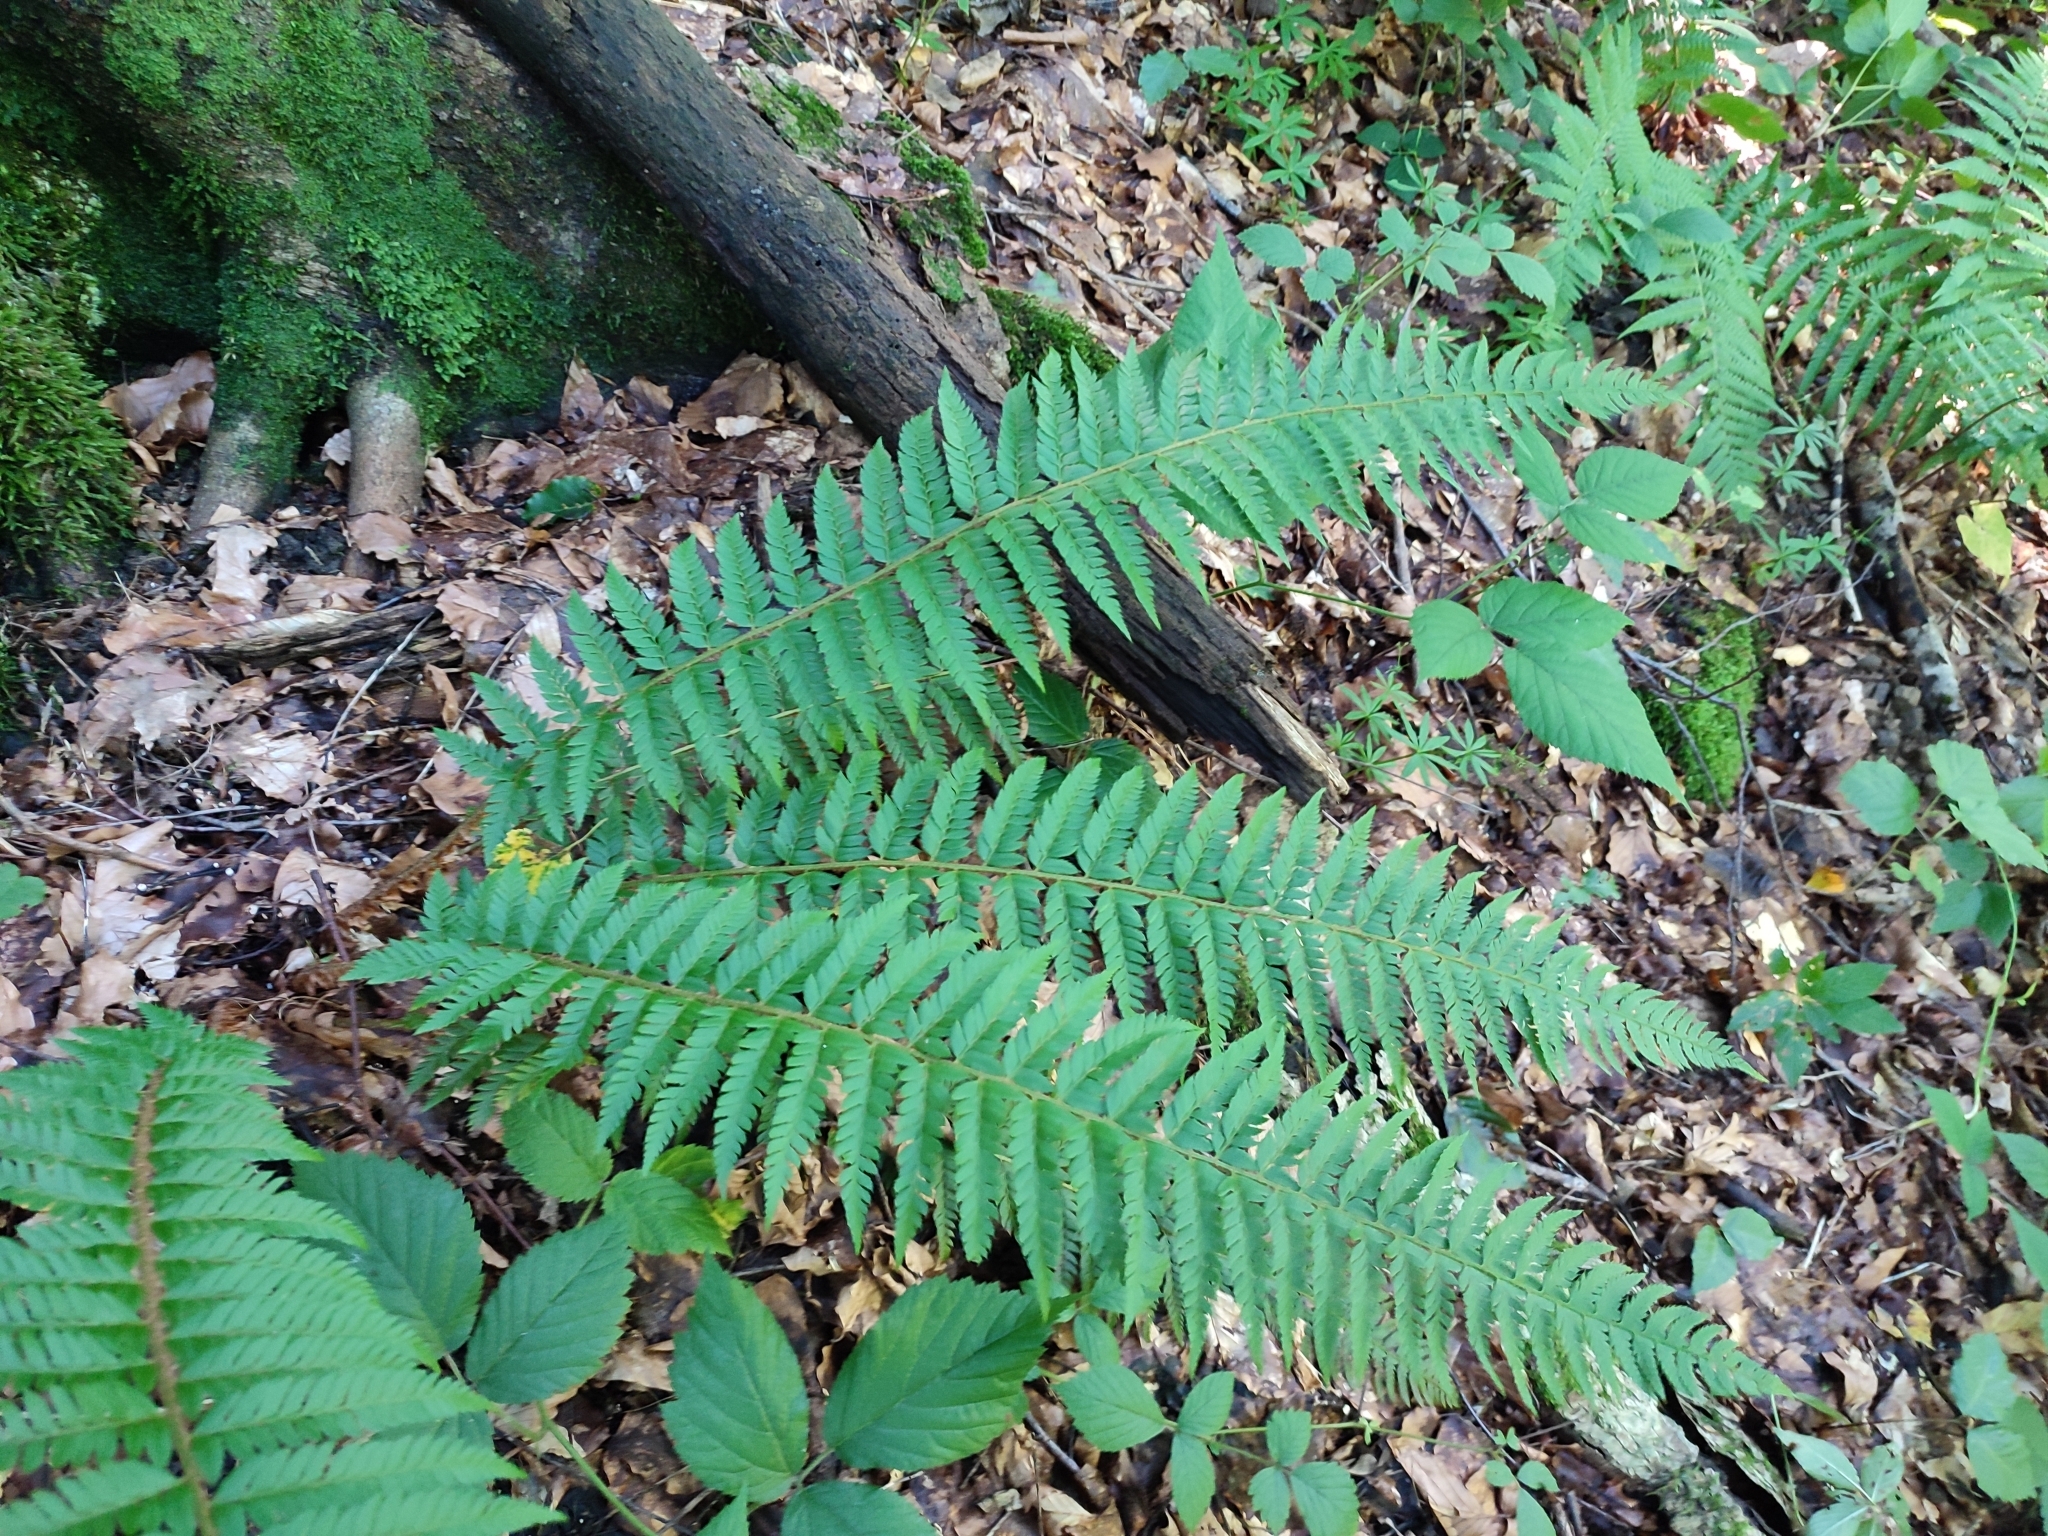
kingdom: Plantae
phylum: Tracheophyta
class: Polypodiopsida
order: Polypodiales
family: Dryopteridaceae
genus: Polystichum
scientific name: Polystichum aculeatum
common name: Hard shield-fern
